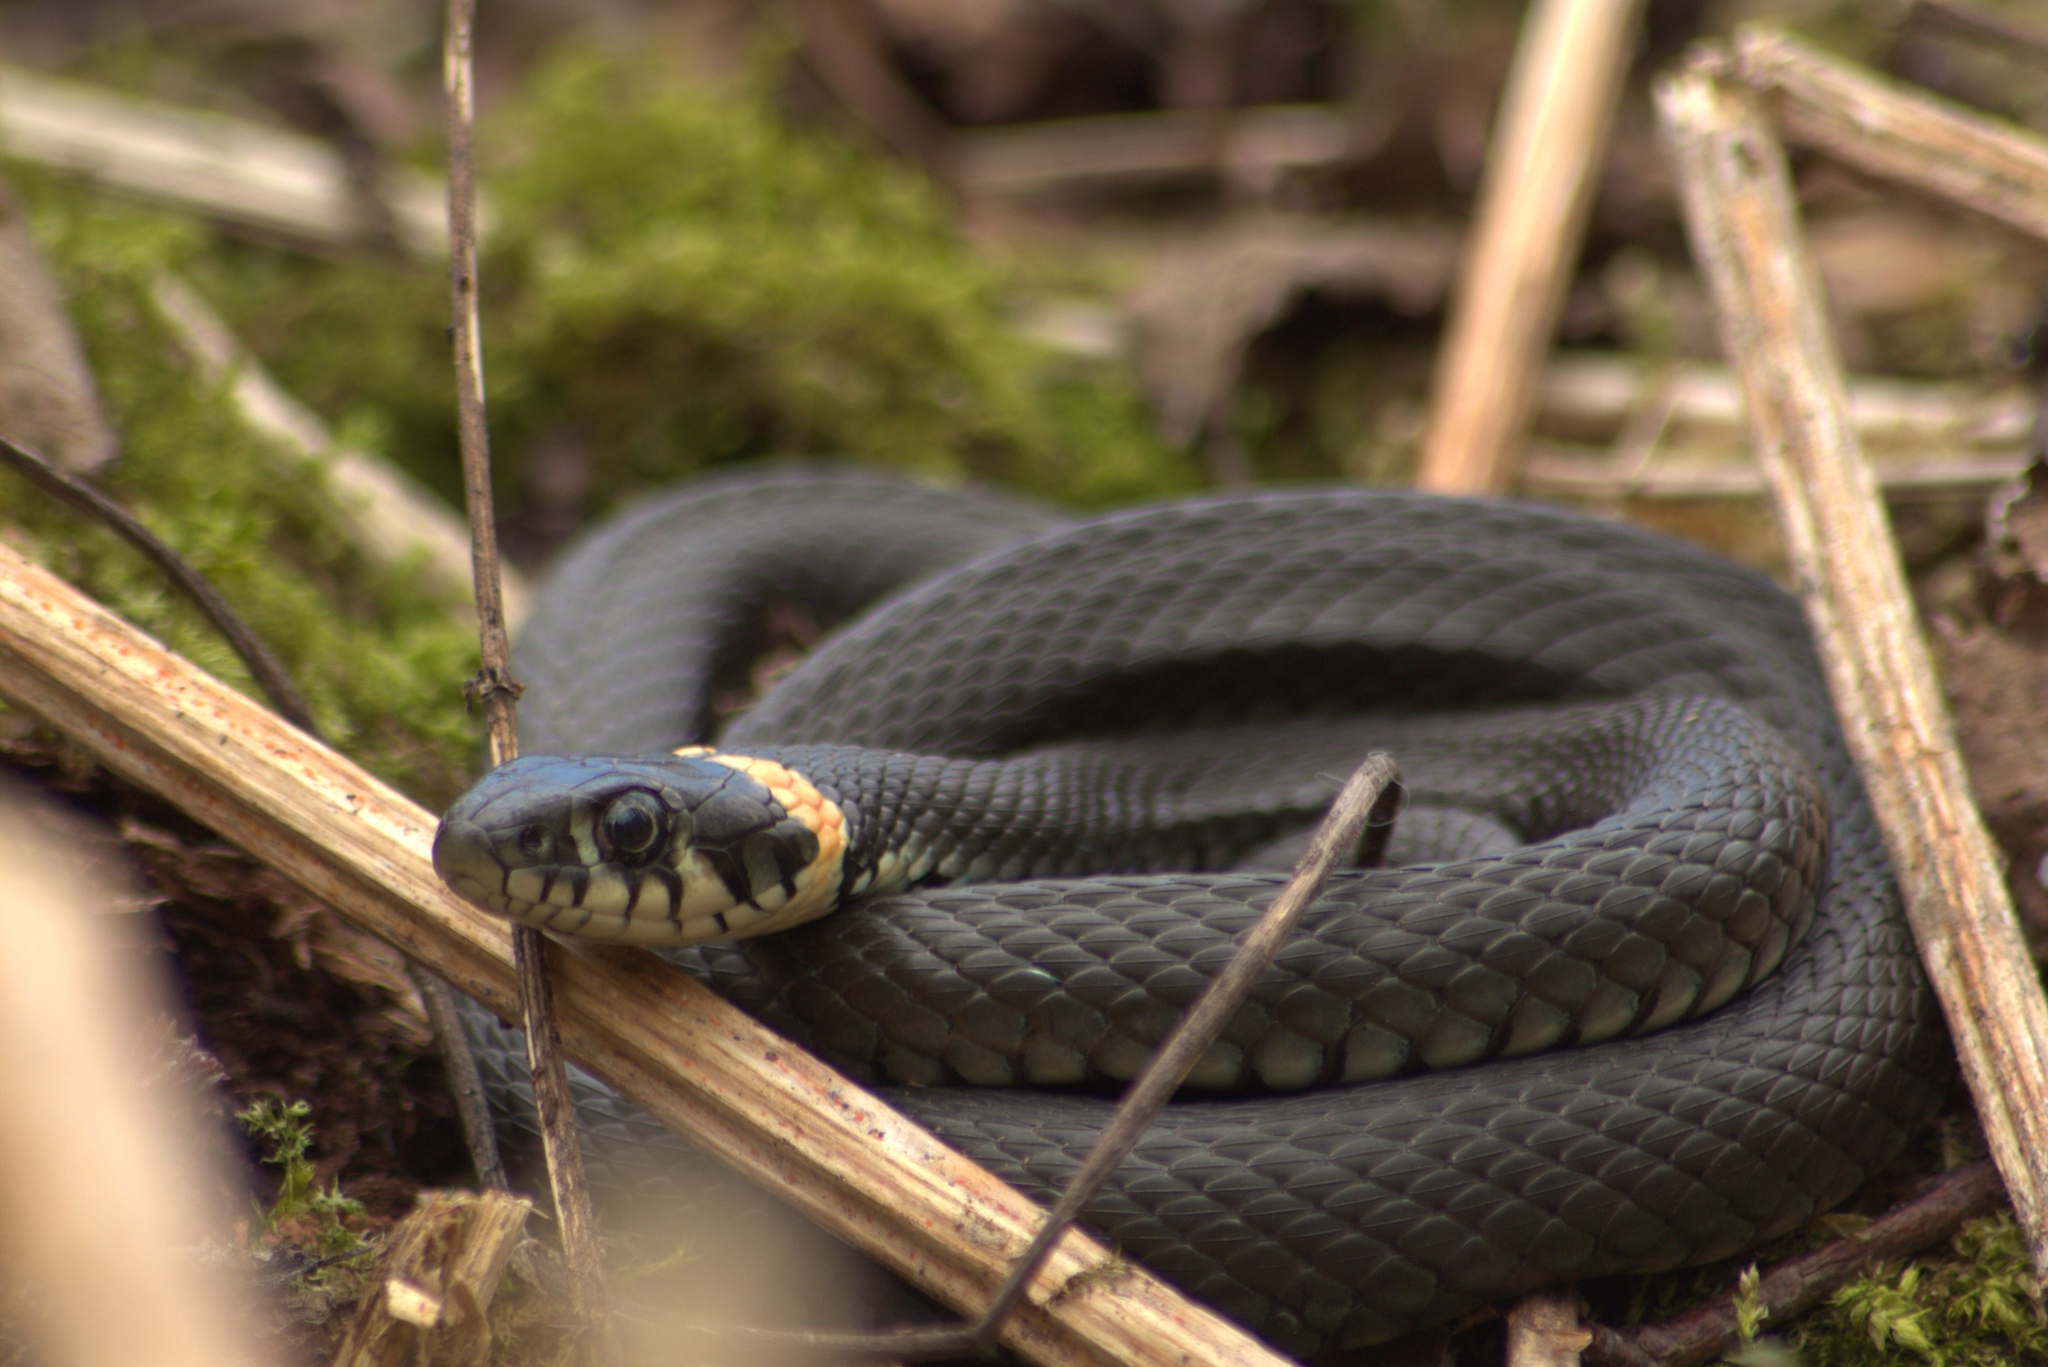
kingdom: Animalia
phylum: Chordata
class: Squamata
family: Colubridae
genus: Natrix
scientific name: Natrix natrix
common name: Grass snake
